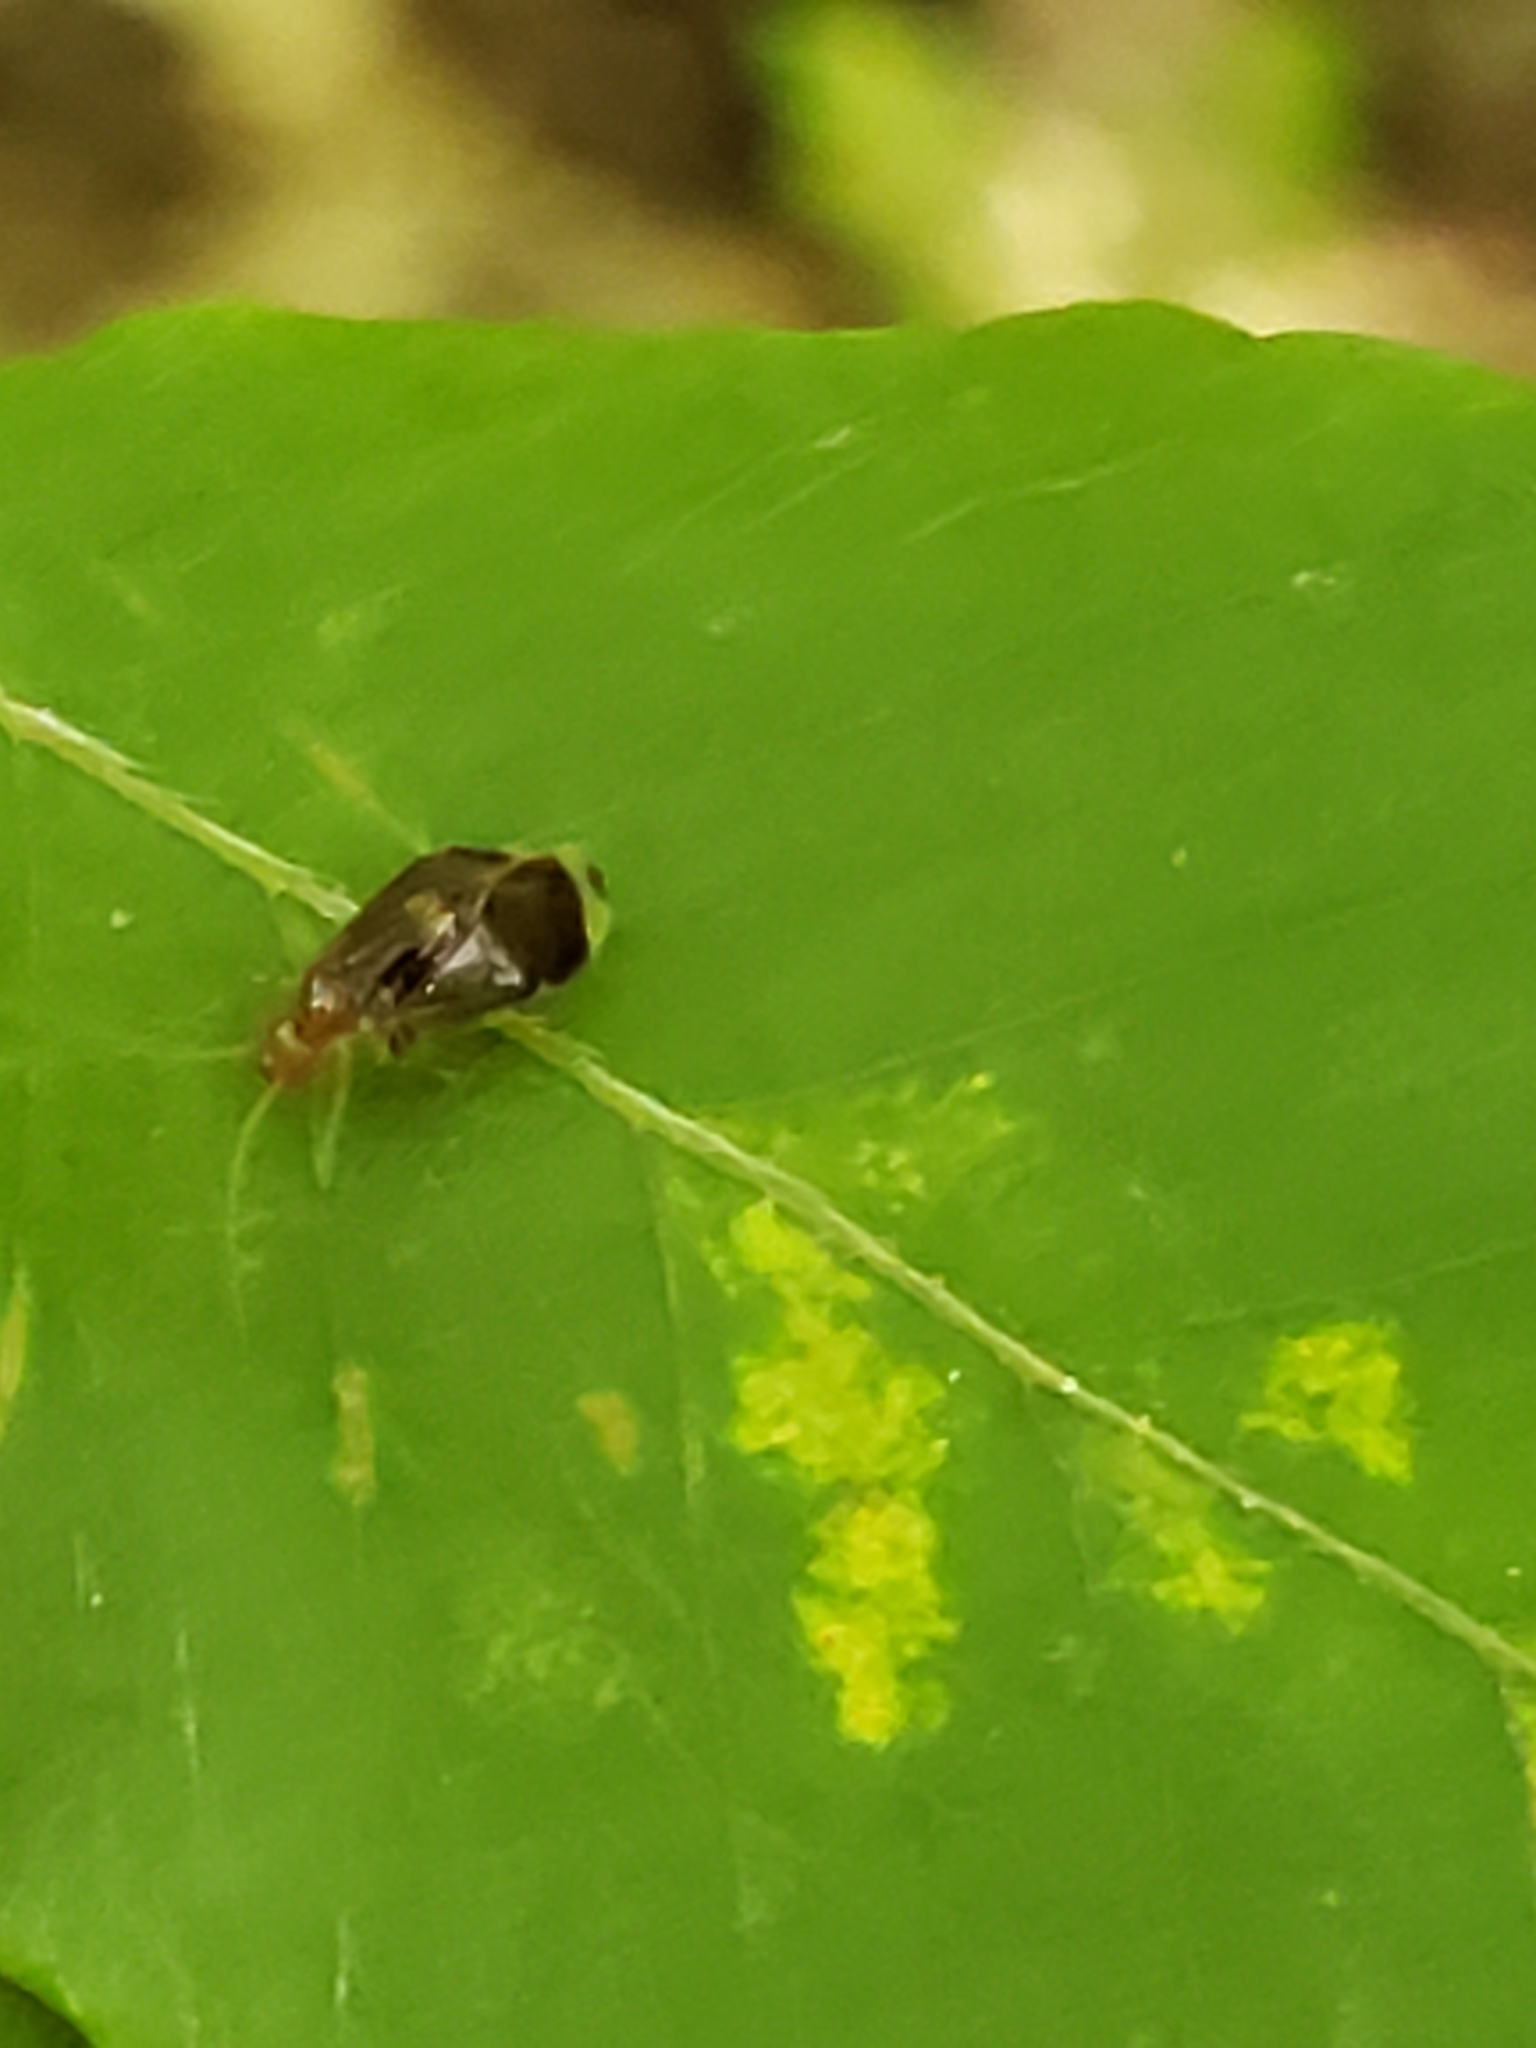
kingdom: Animalia
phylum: Arthropoda
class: Insecta
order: Psocodea
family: Amphipsocidae
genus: Polypsocus
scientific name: Polypsocus corruptus
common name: Corrupt barklouse
